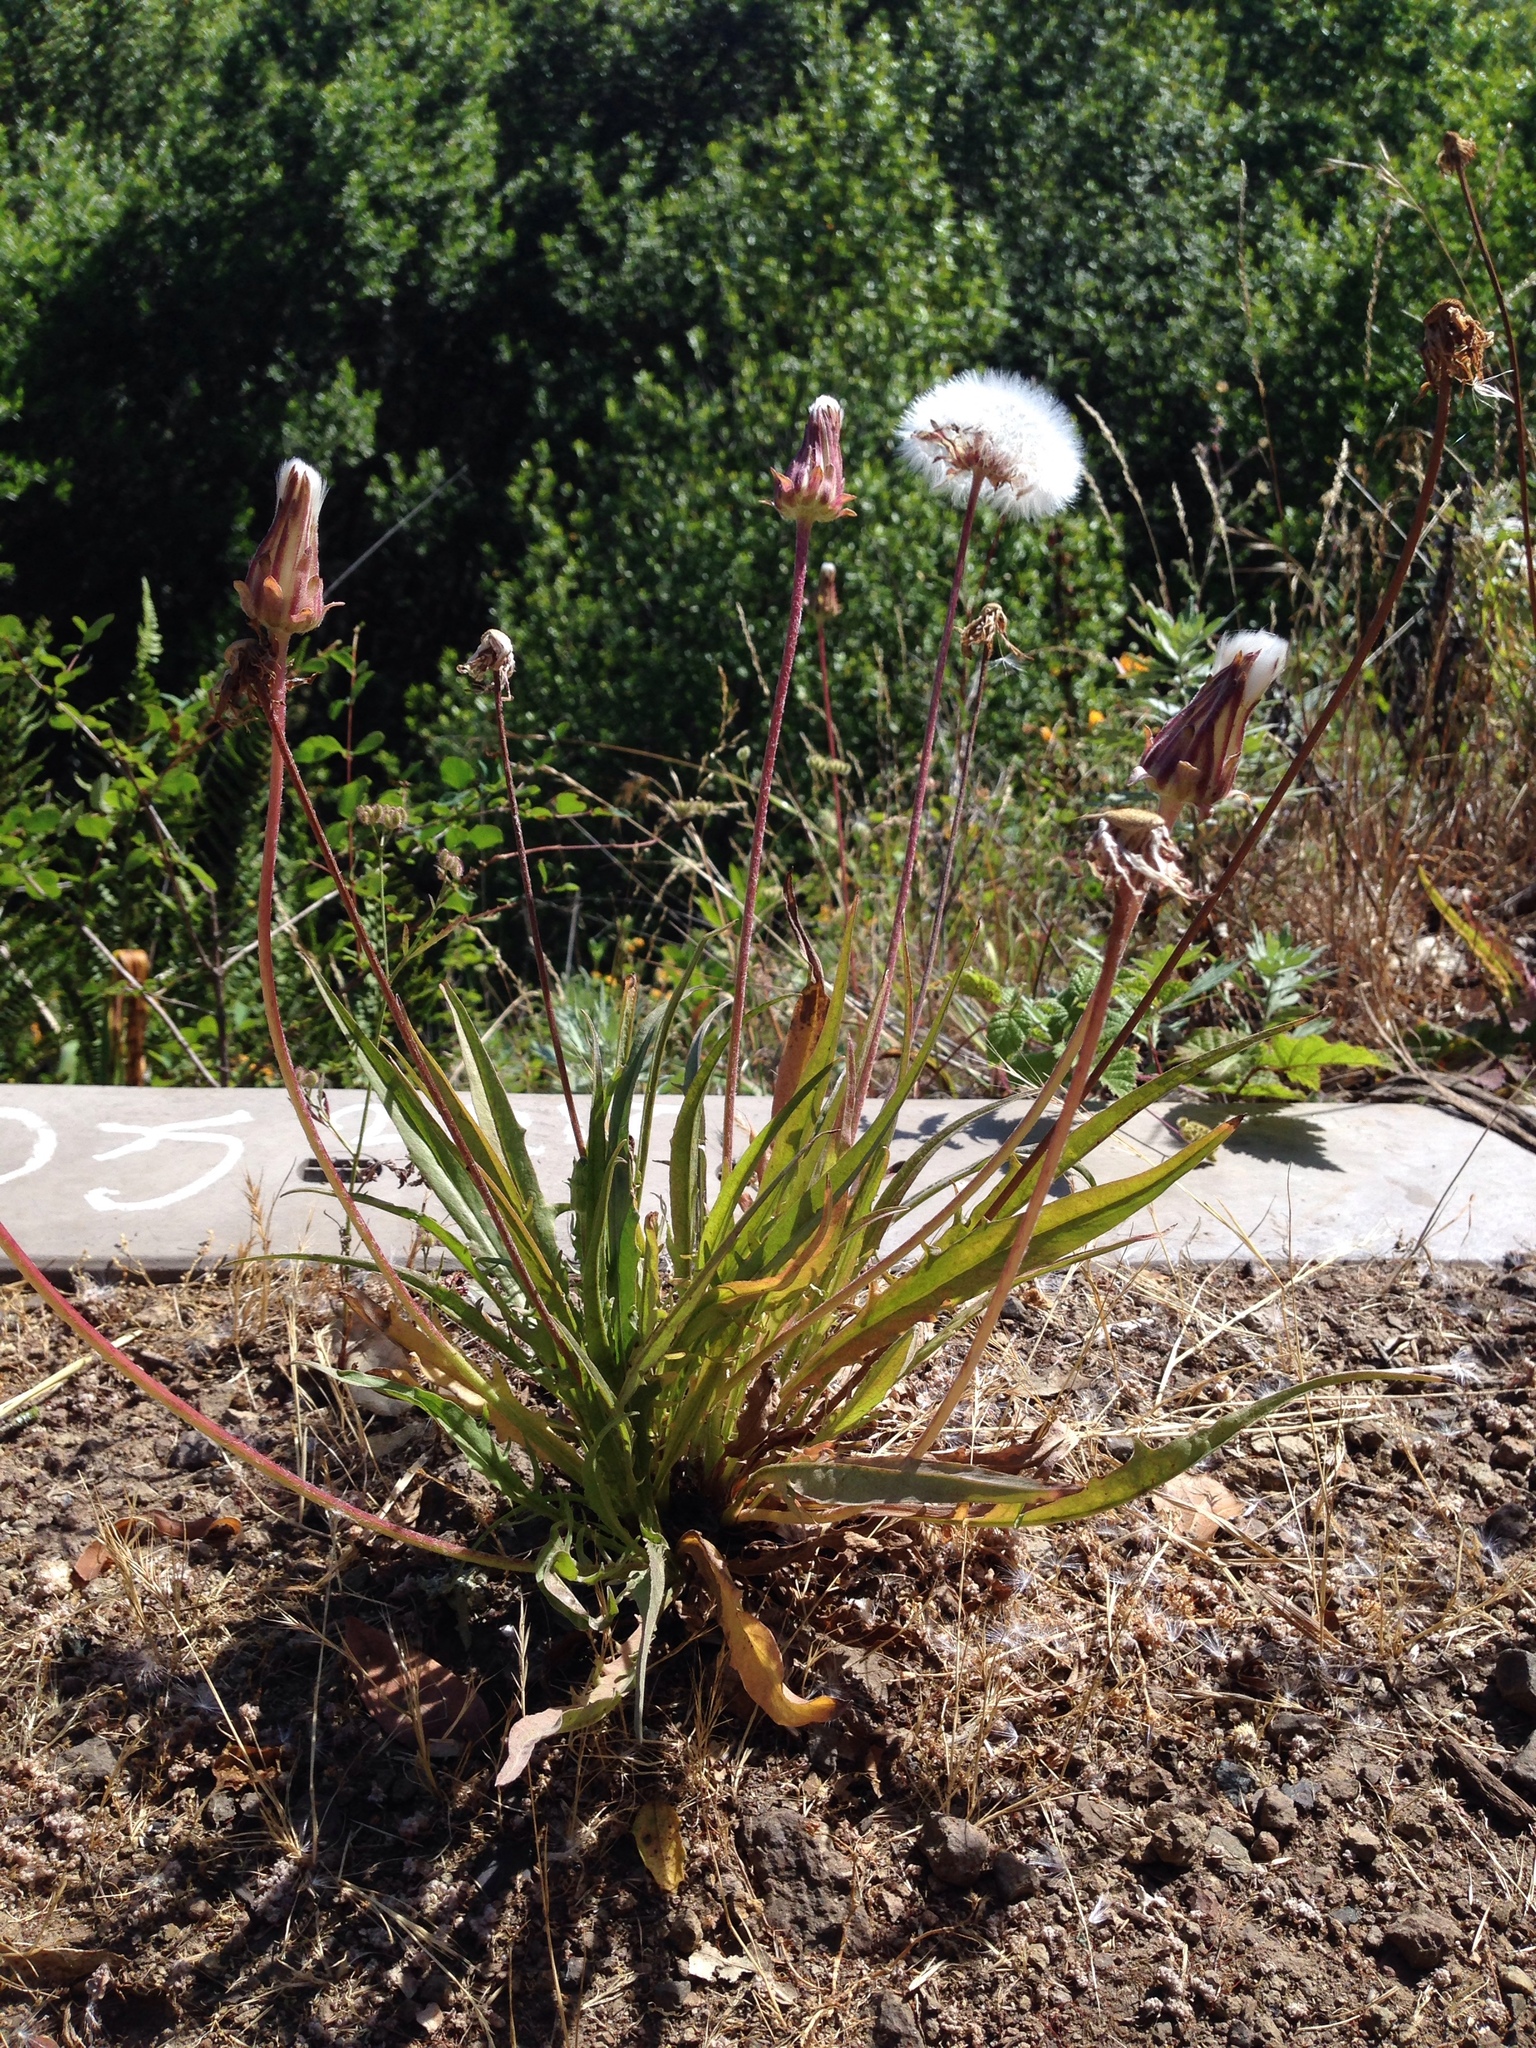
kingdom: Plantae
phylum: Tracheophyta
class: Magnoliopsida
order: Asterales
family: Asteraceae
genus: Agoseris
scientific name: Agoseris grandiflora
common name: Grassland agoseris
